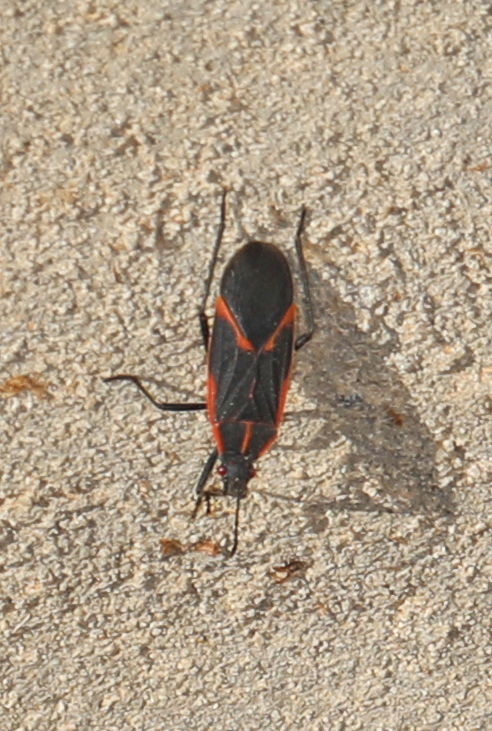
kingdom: Animalia
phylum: Arthropoda
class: Insecta
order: Hemiptera
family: Rhopalidae
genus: Boisea
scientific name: Boisea trivittata
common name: Boxelder bug
